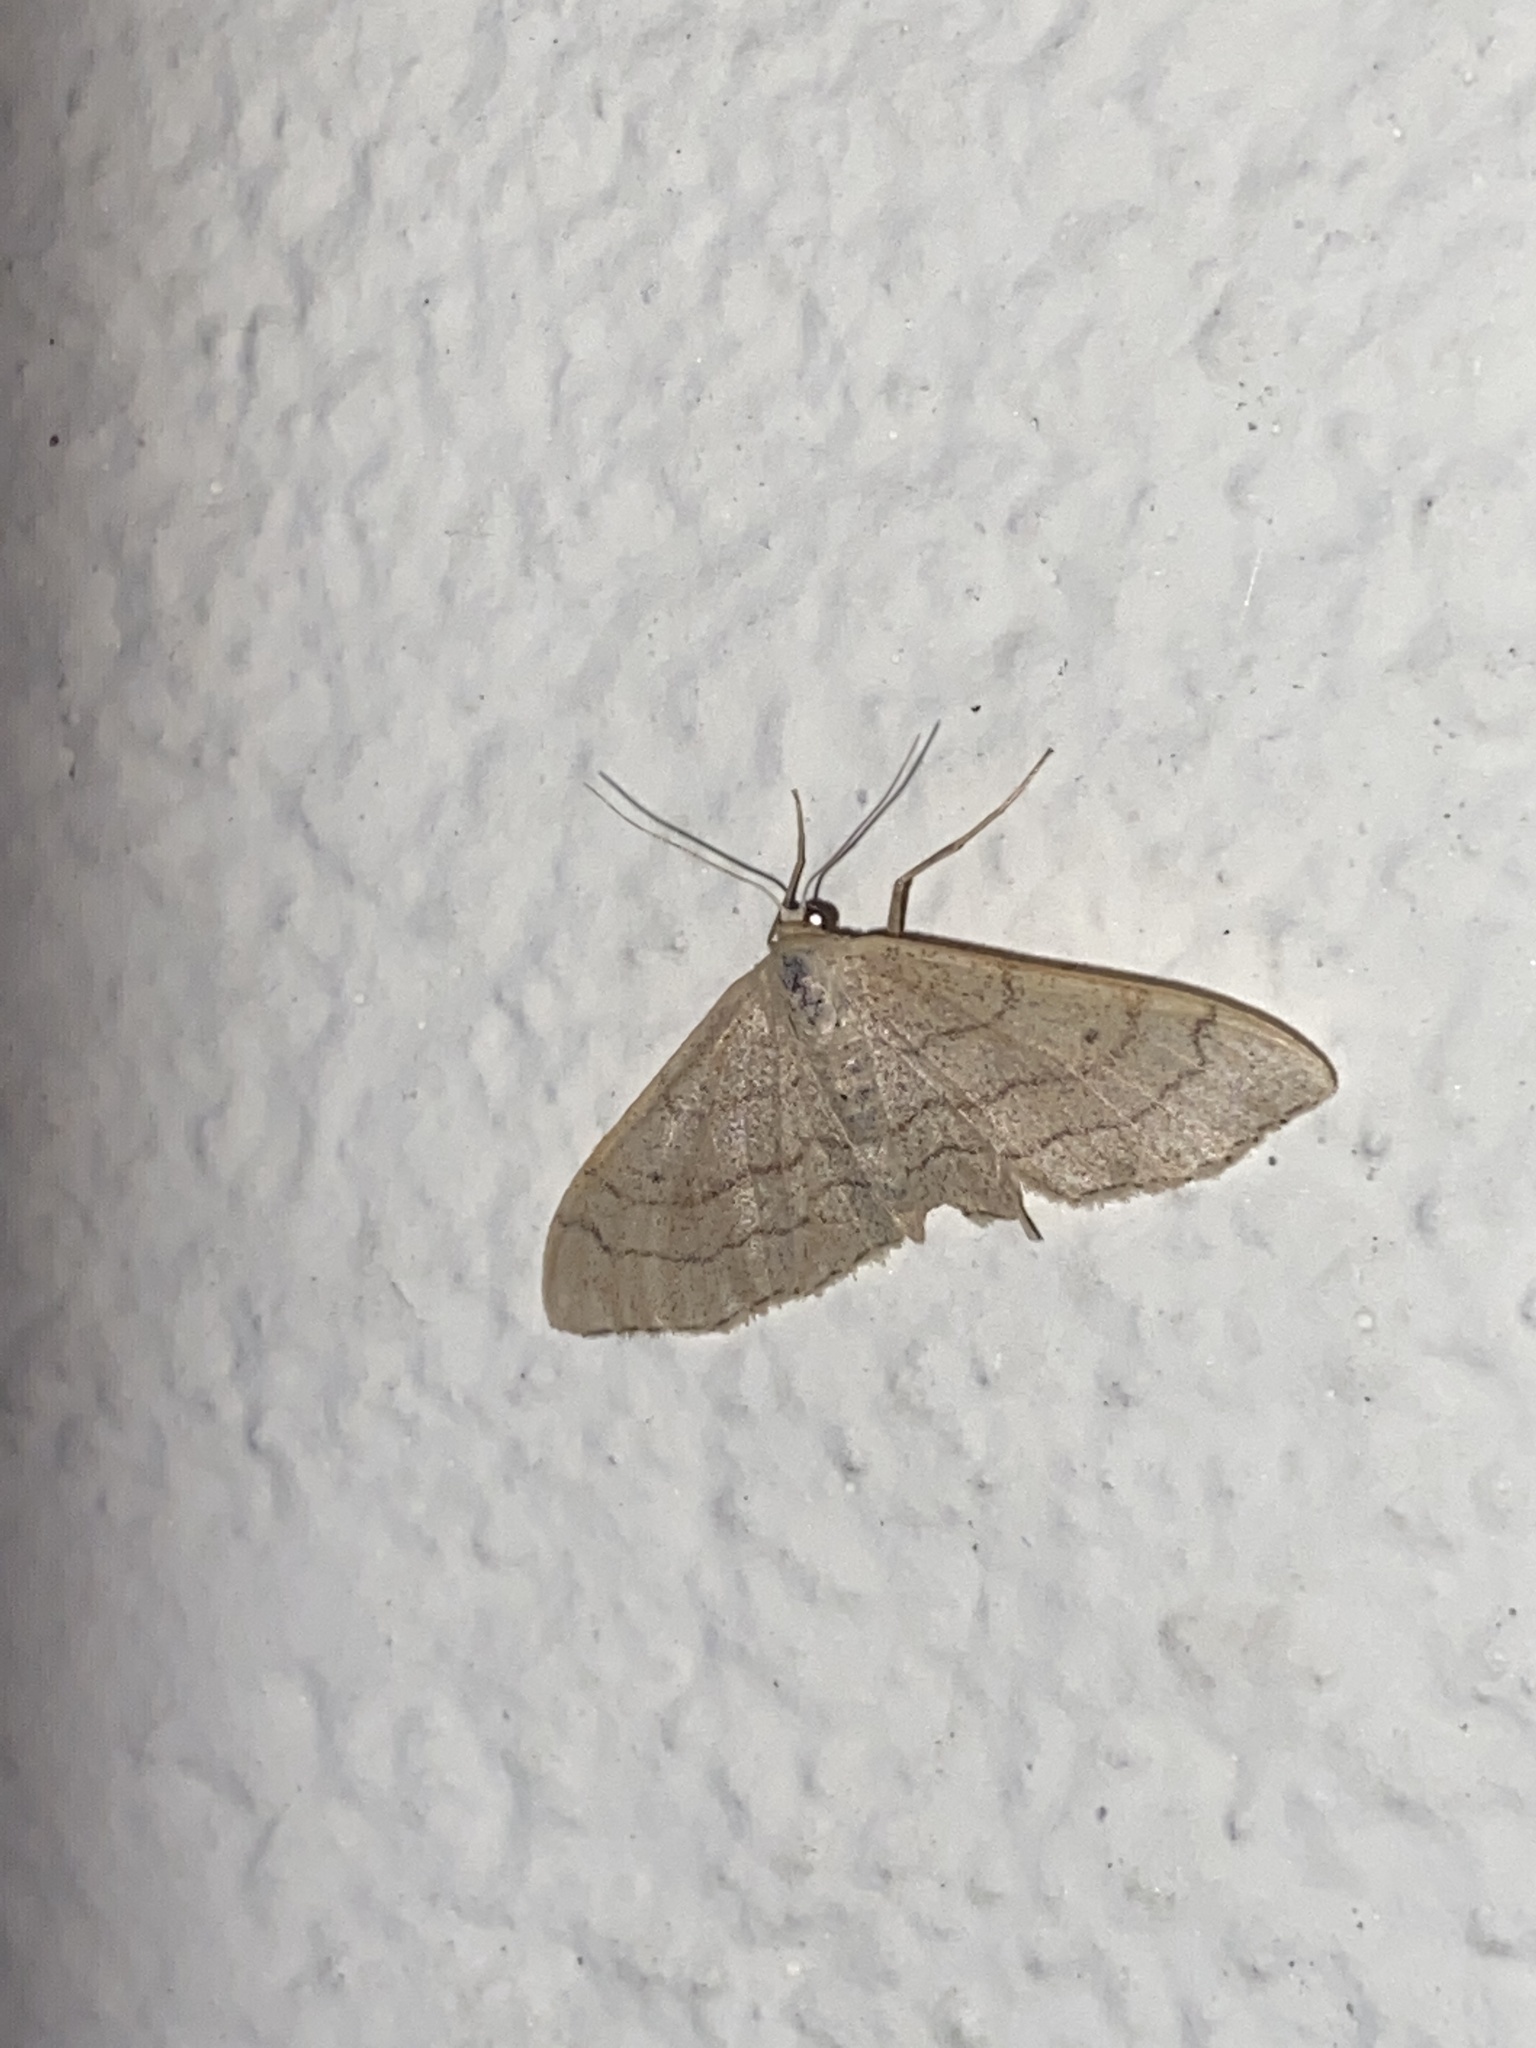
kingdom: Animalia
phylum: Arthropoda
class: Insecta
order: Lepidoptera
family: Geometridae
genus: Idaea
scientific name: Idaea aversata
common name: Riband wave
